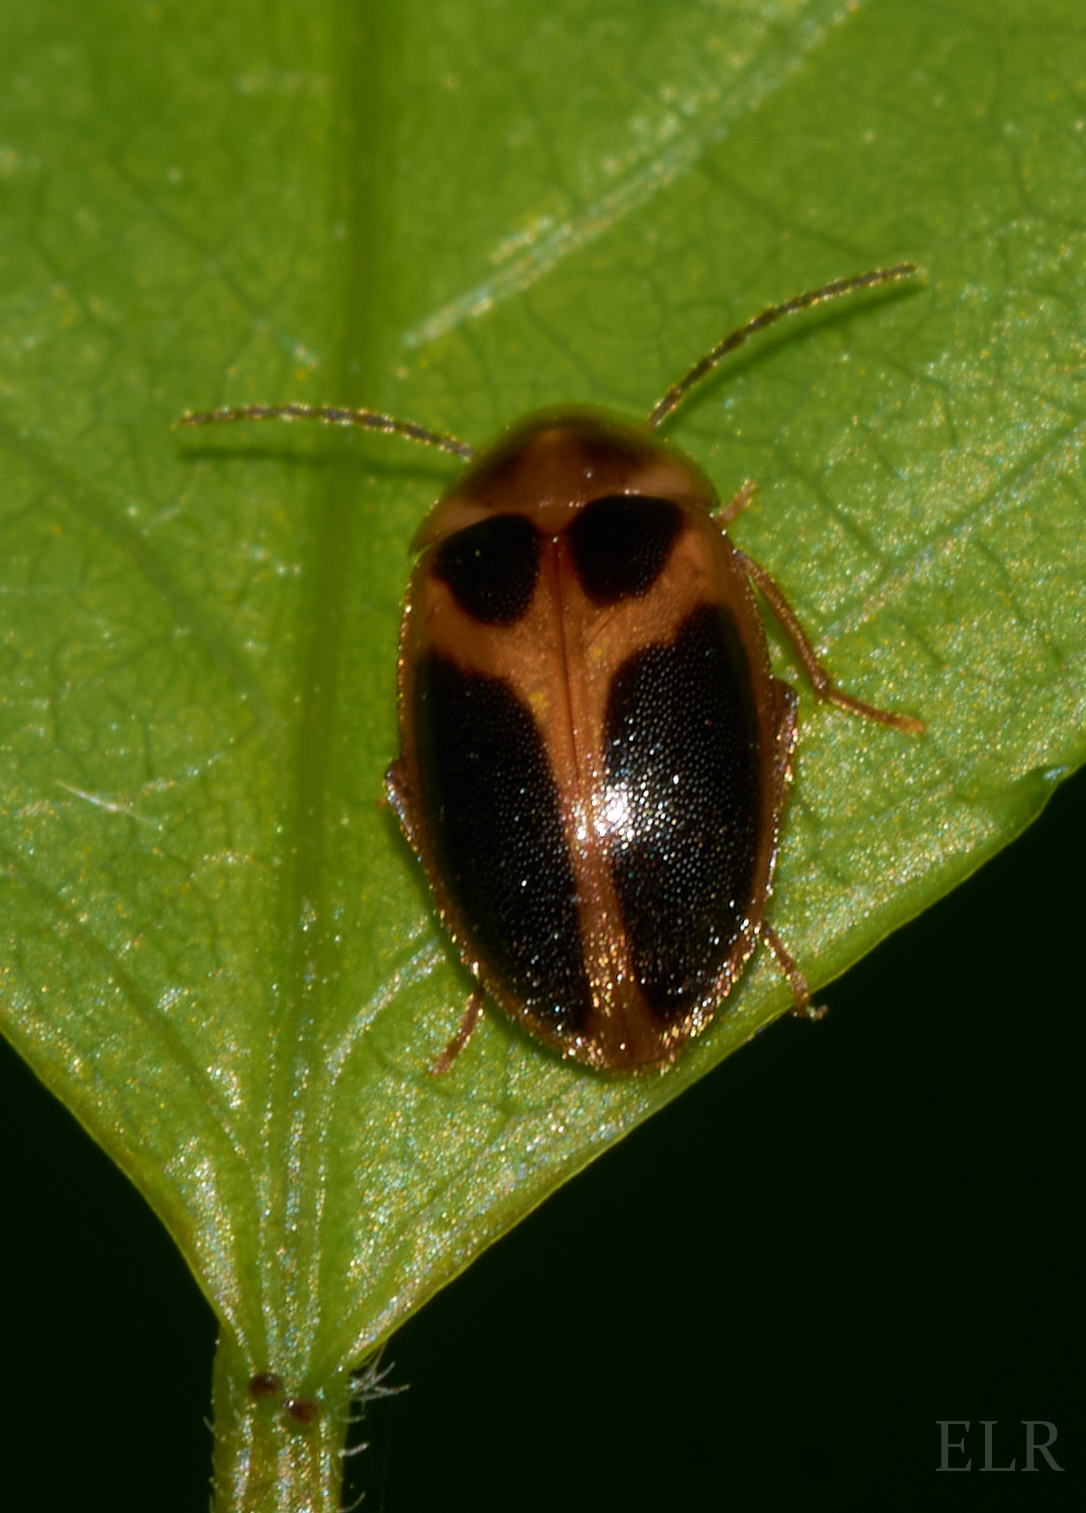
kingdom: Animalia
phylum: Arthropoda
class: Insecta
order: Coleoptera
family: Scirtidae
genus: Sacodes
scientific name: Sacodes pulchella
